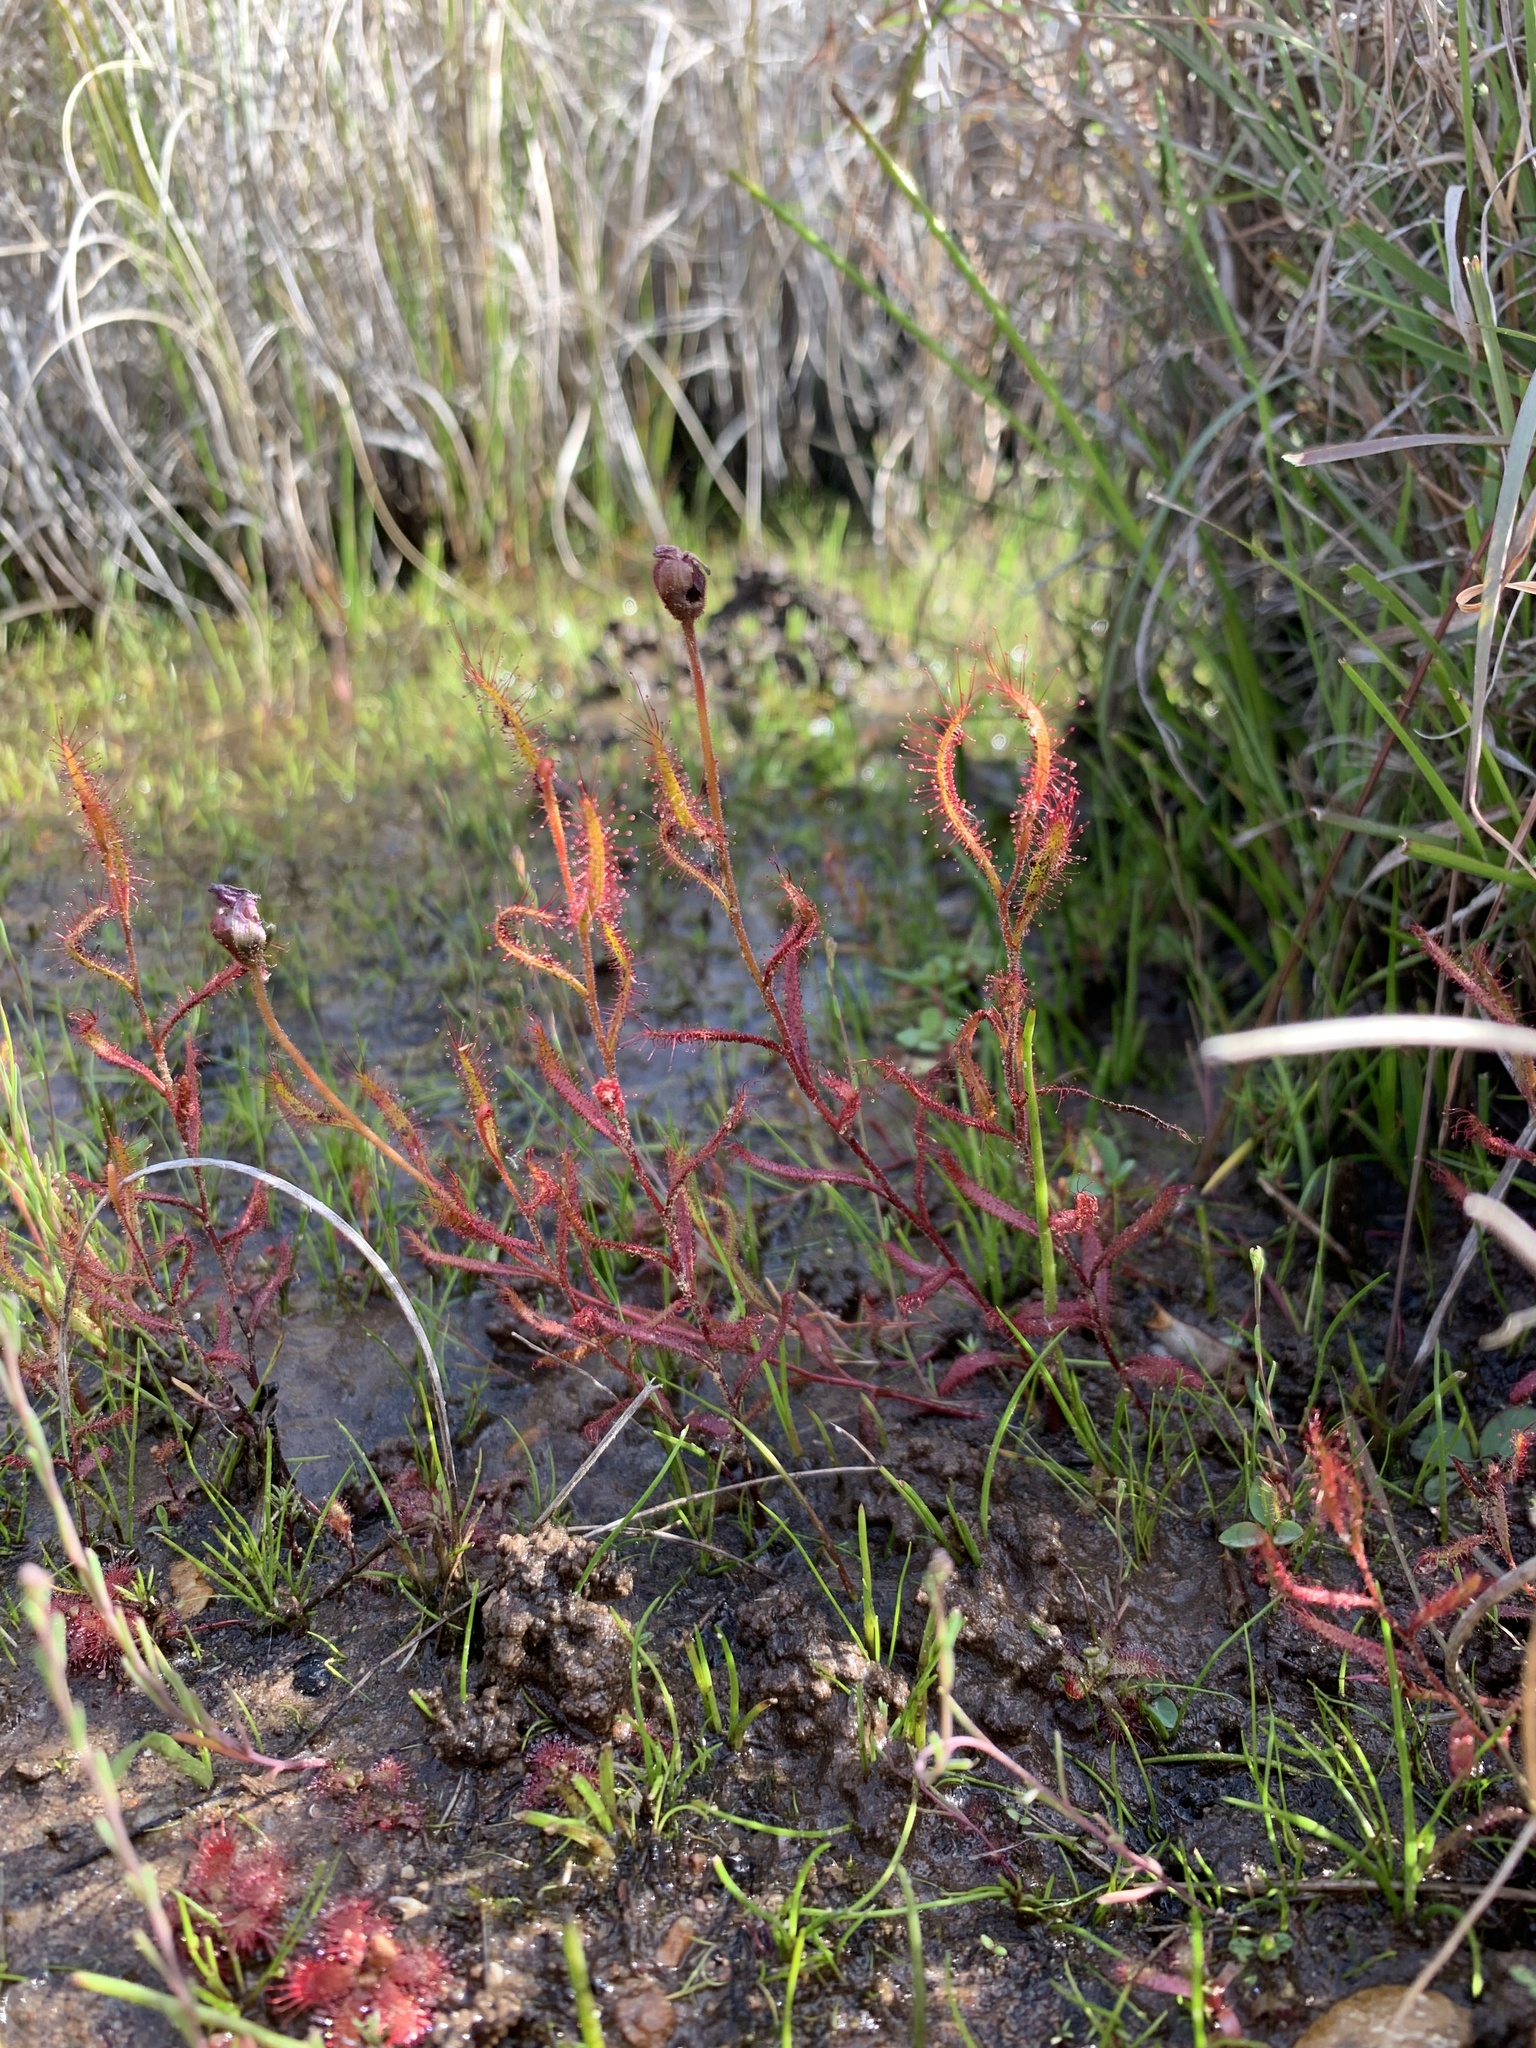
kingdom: Plantae
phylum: Tracheophyta
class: Magnoliopsida
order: Caryophyllales
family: Droseraceae
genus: Drosera
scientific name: Drosera cistiflora
